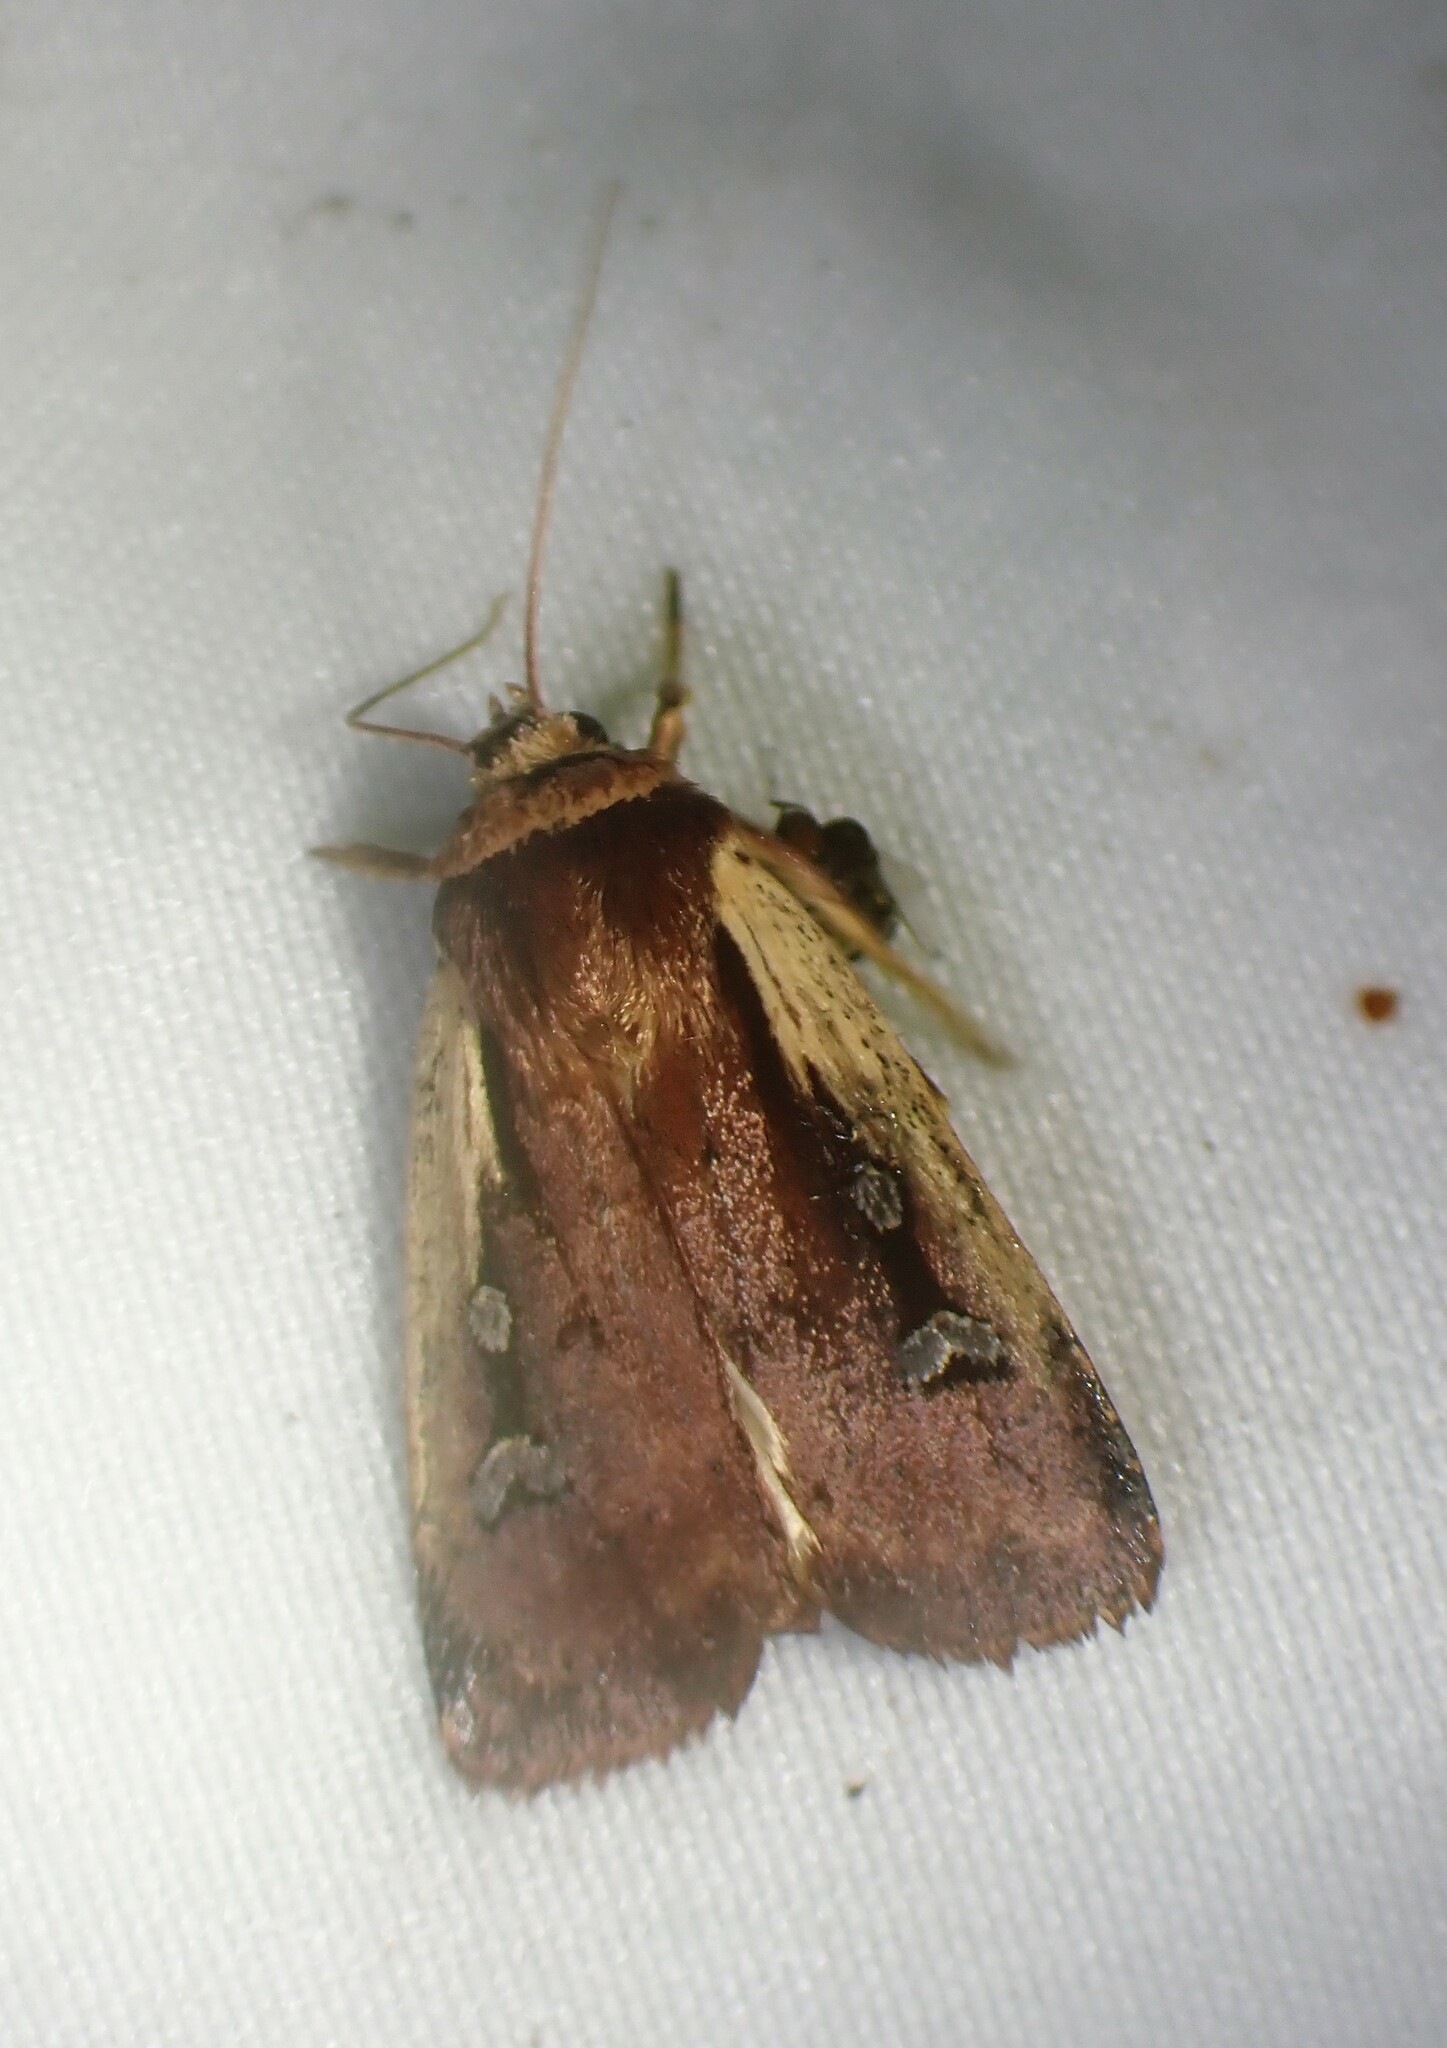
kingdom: Animalia
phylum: Arthropoda
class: Insecta
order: Lepidoptera
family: Noctuidae
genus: Ochropleura
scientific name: Ochropleura implecta
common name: Flame-shouldered dart
